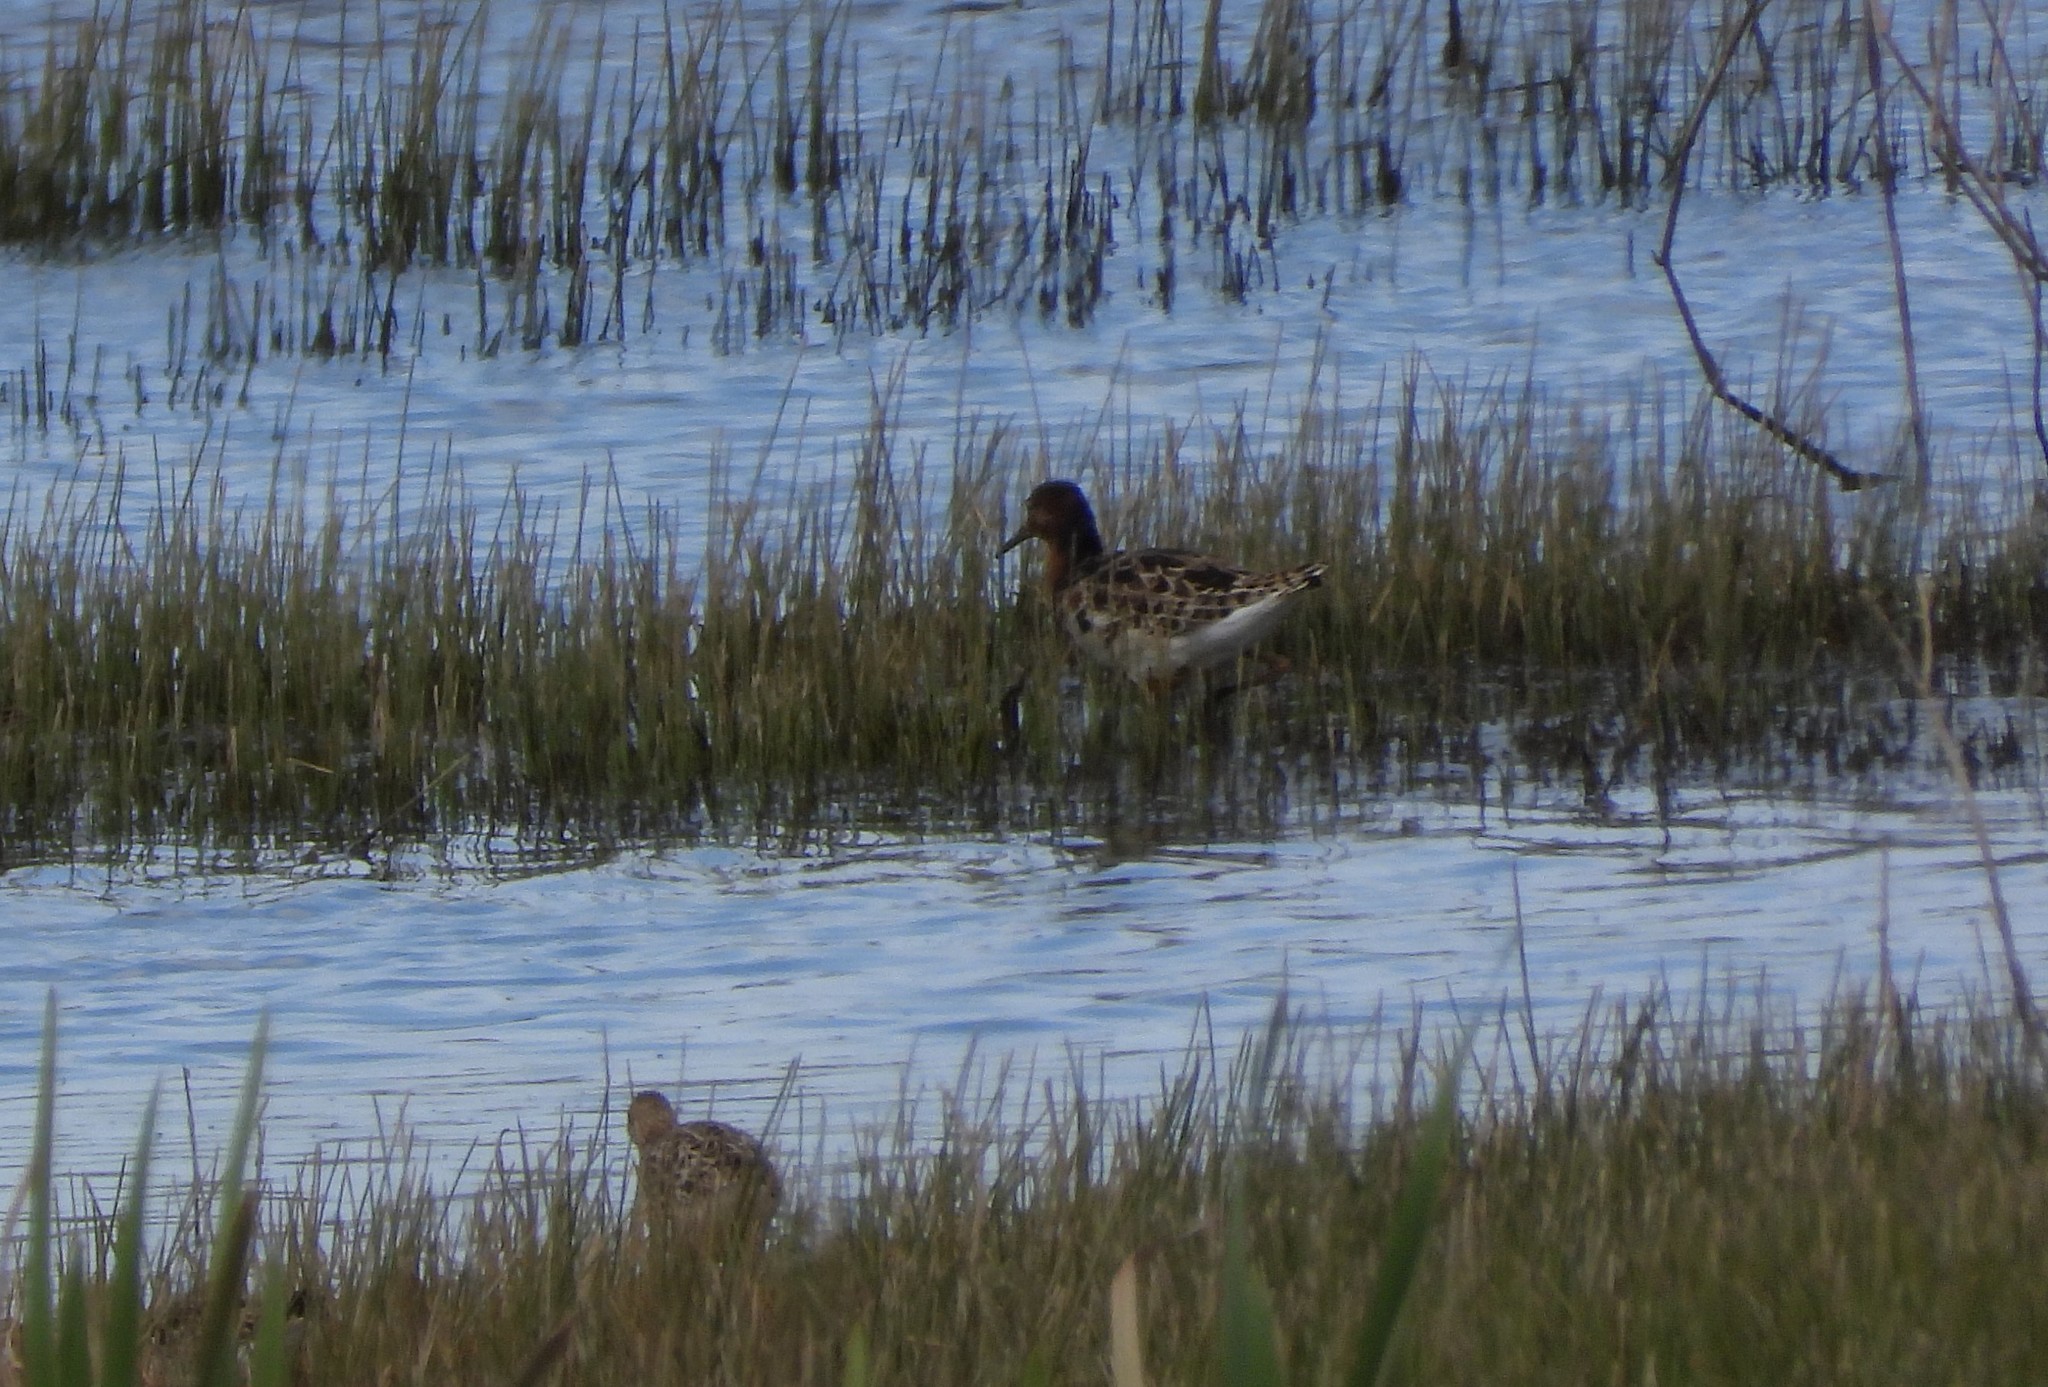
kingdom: Animalia
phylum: Chordata
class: Aves
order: Charadriiformes
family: Scolopacidae
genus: Calidris
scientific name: Calidris pugnax
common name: Ruff
